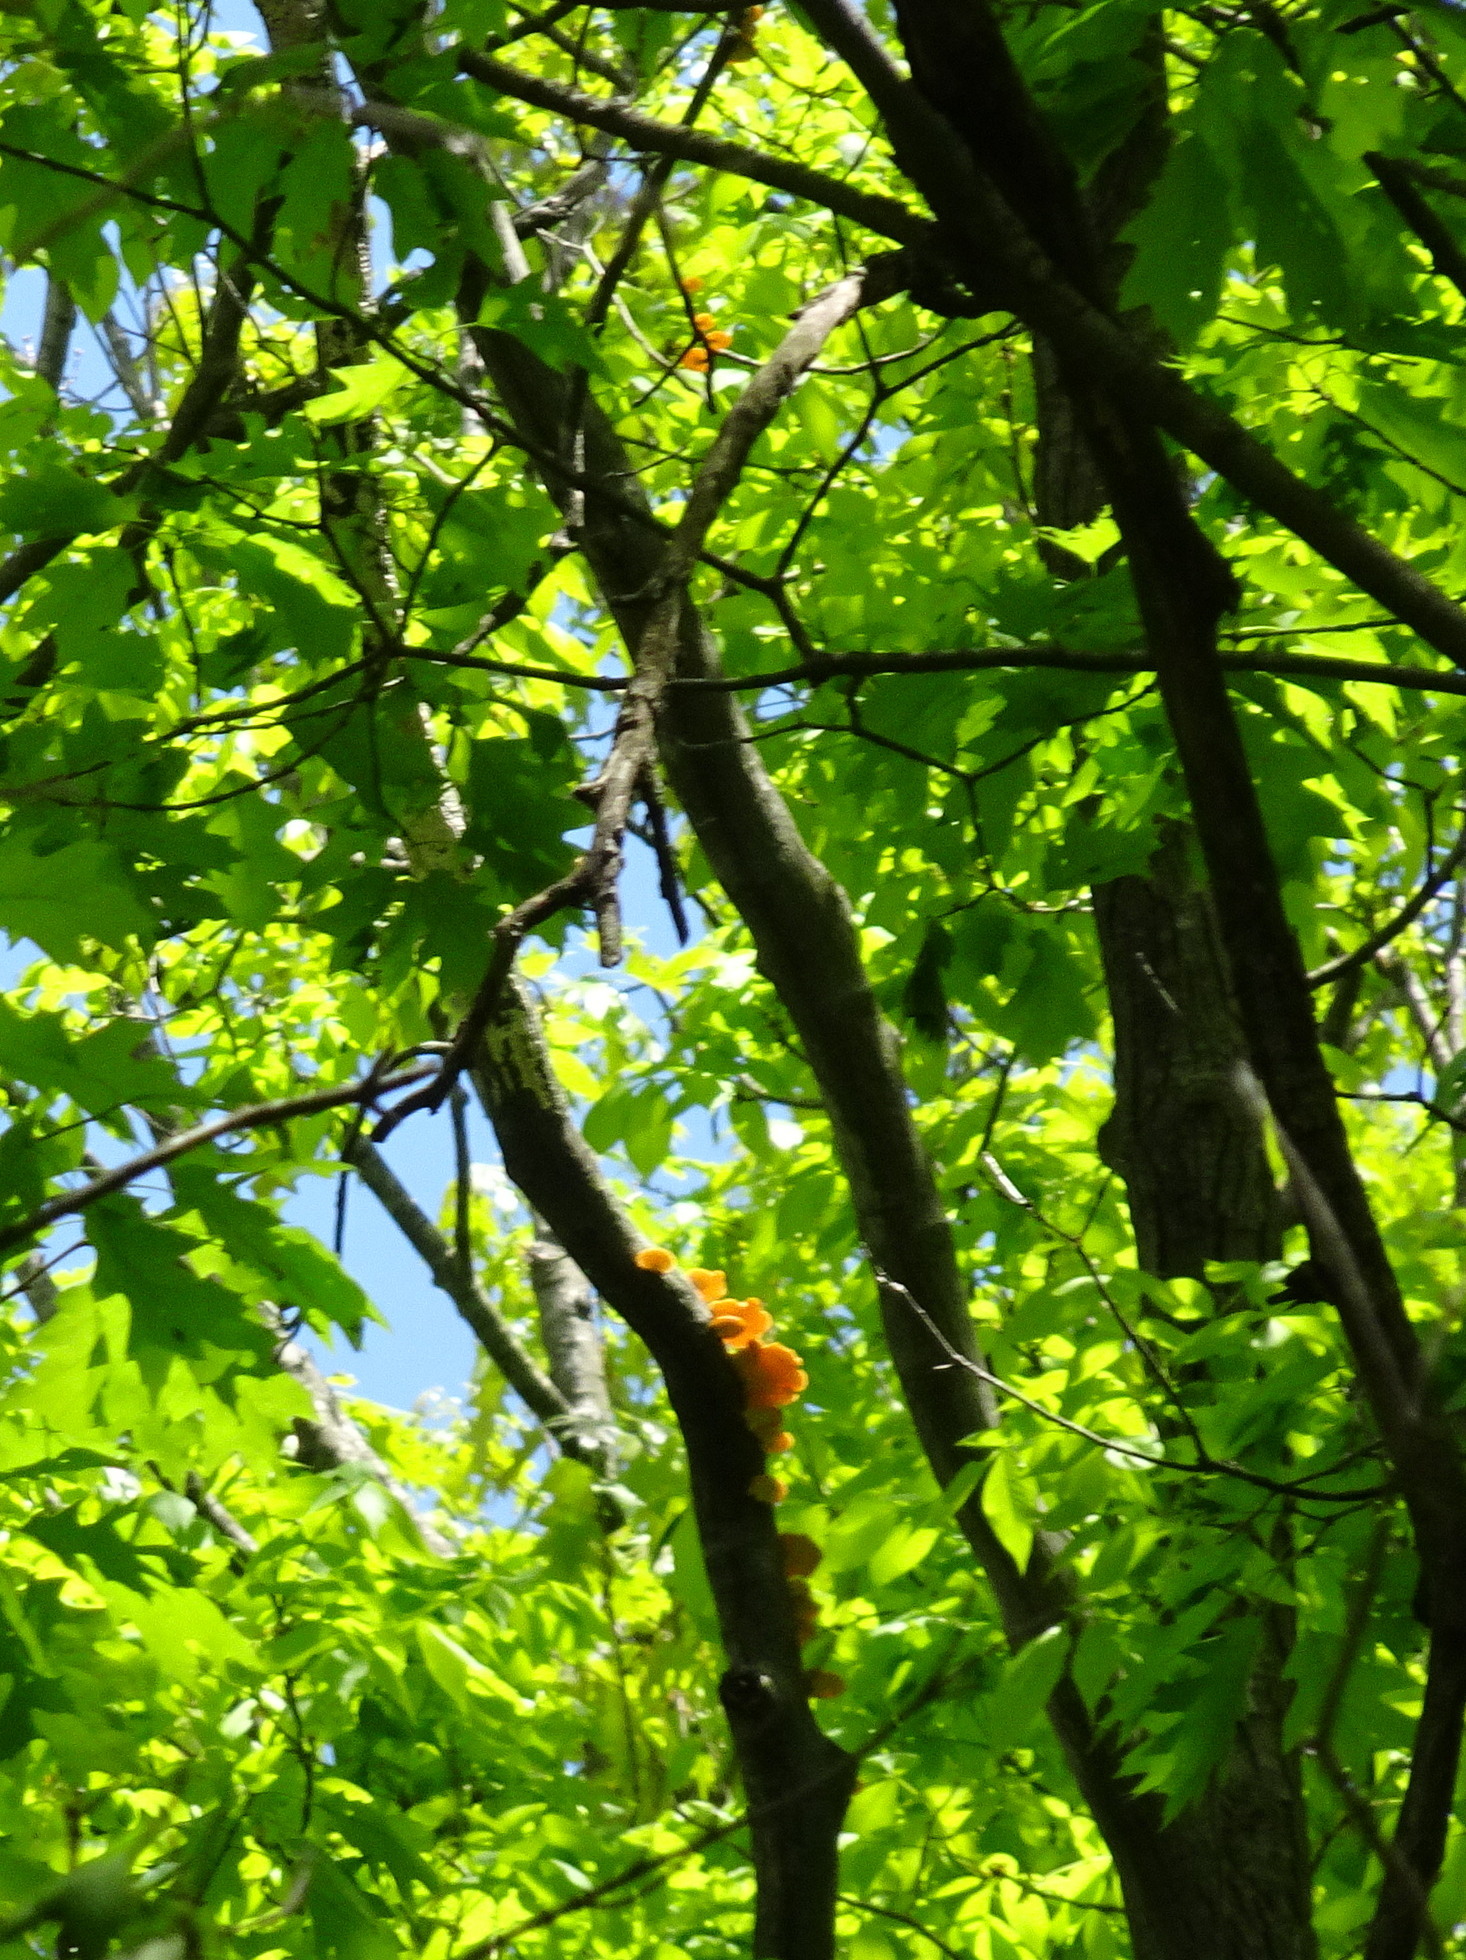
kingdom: Fungi
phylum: Basidiomycota
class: Agaricomycetes
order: Polyporales
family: Polyporaceae
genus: Neofavolus
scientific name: Neofavolus alveolaris
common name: Hexagonal-pored polypore
